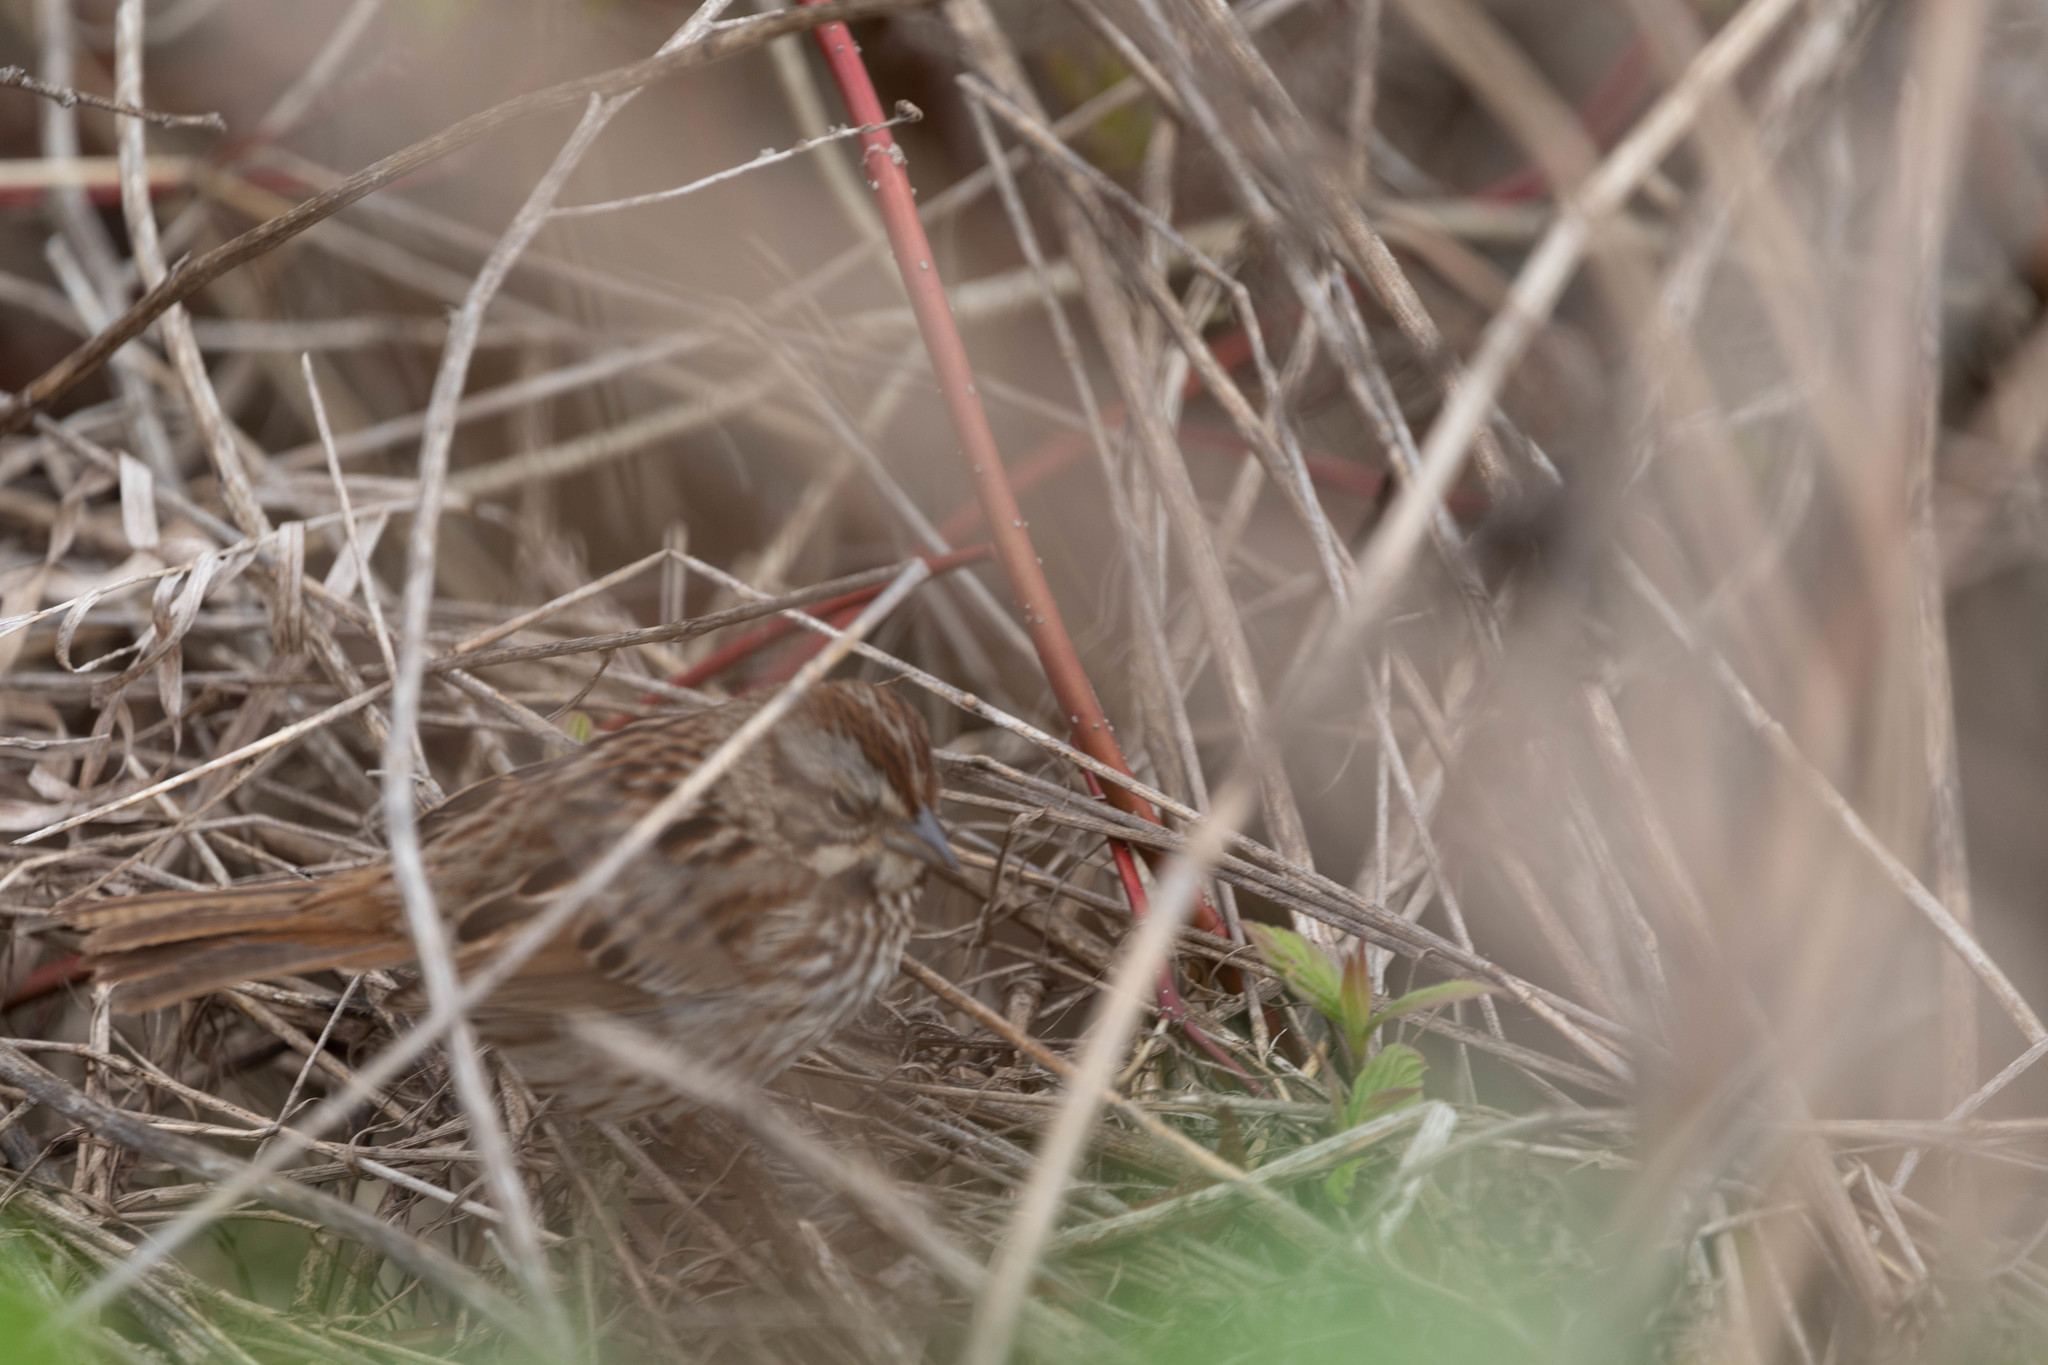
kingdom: Animalia
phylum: Chordata
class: Aves
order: Passeriformes
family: Passerellidae
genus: Melospiza
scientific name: Melospiza melodia
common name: Song sparrow
